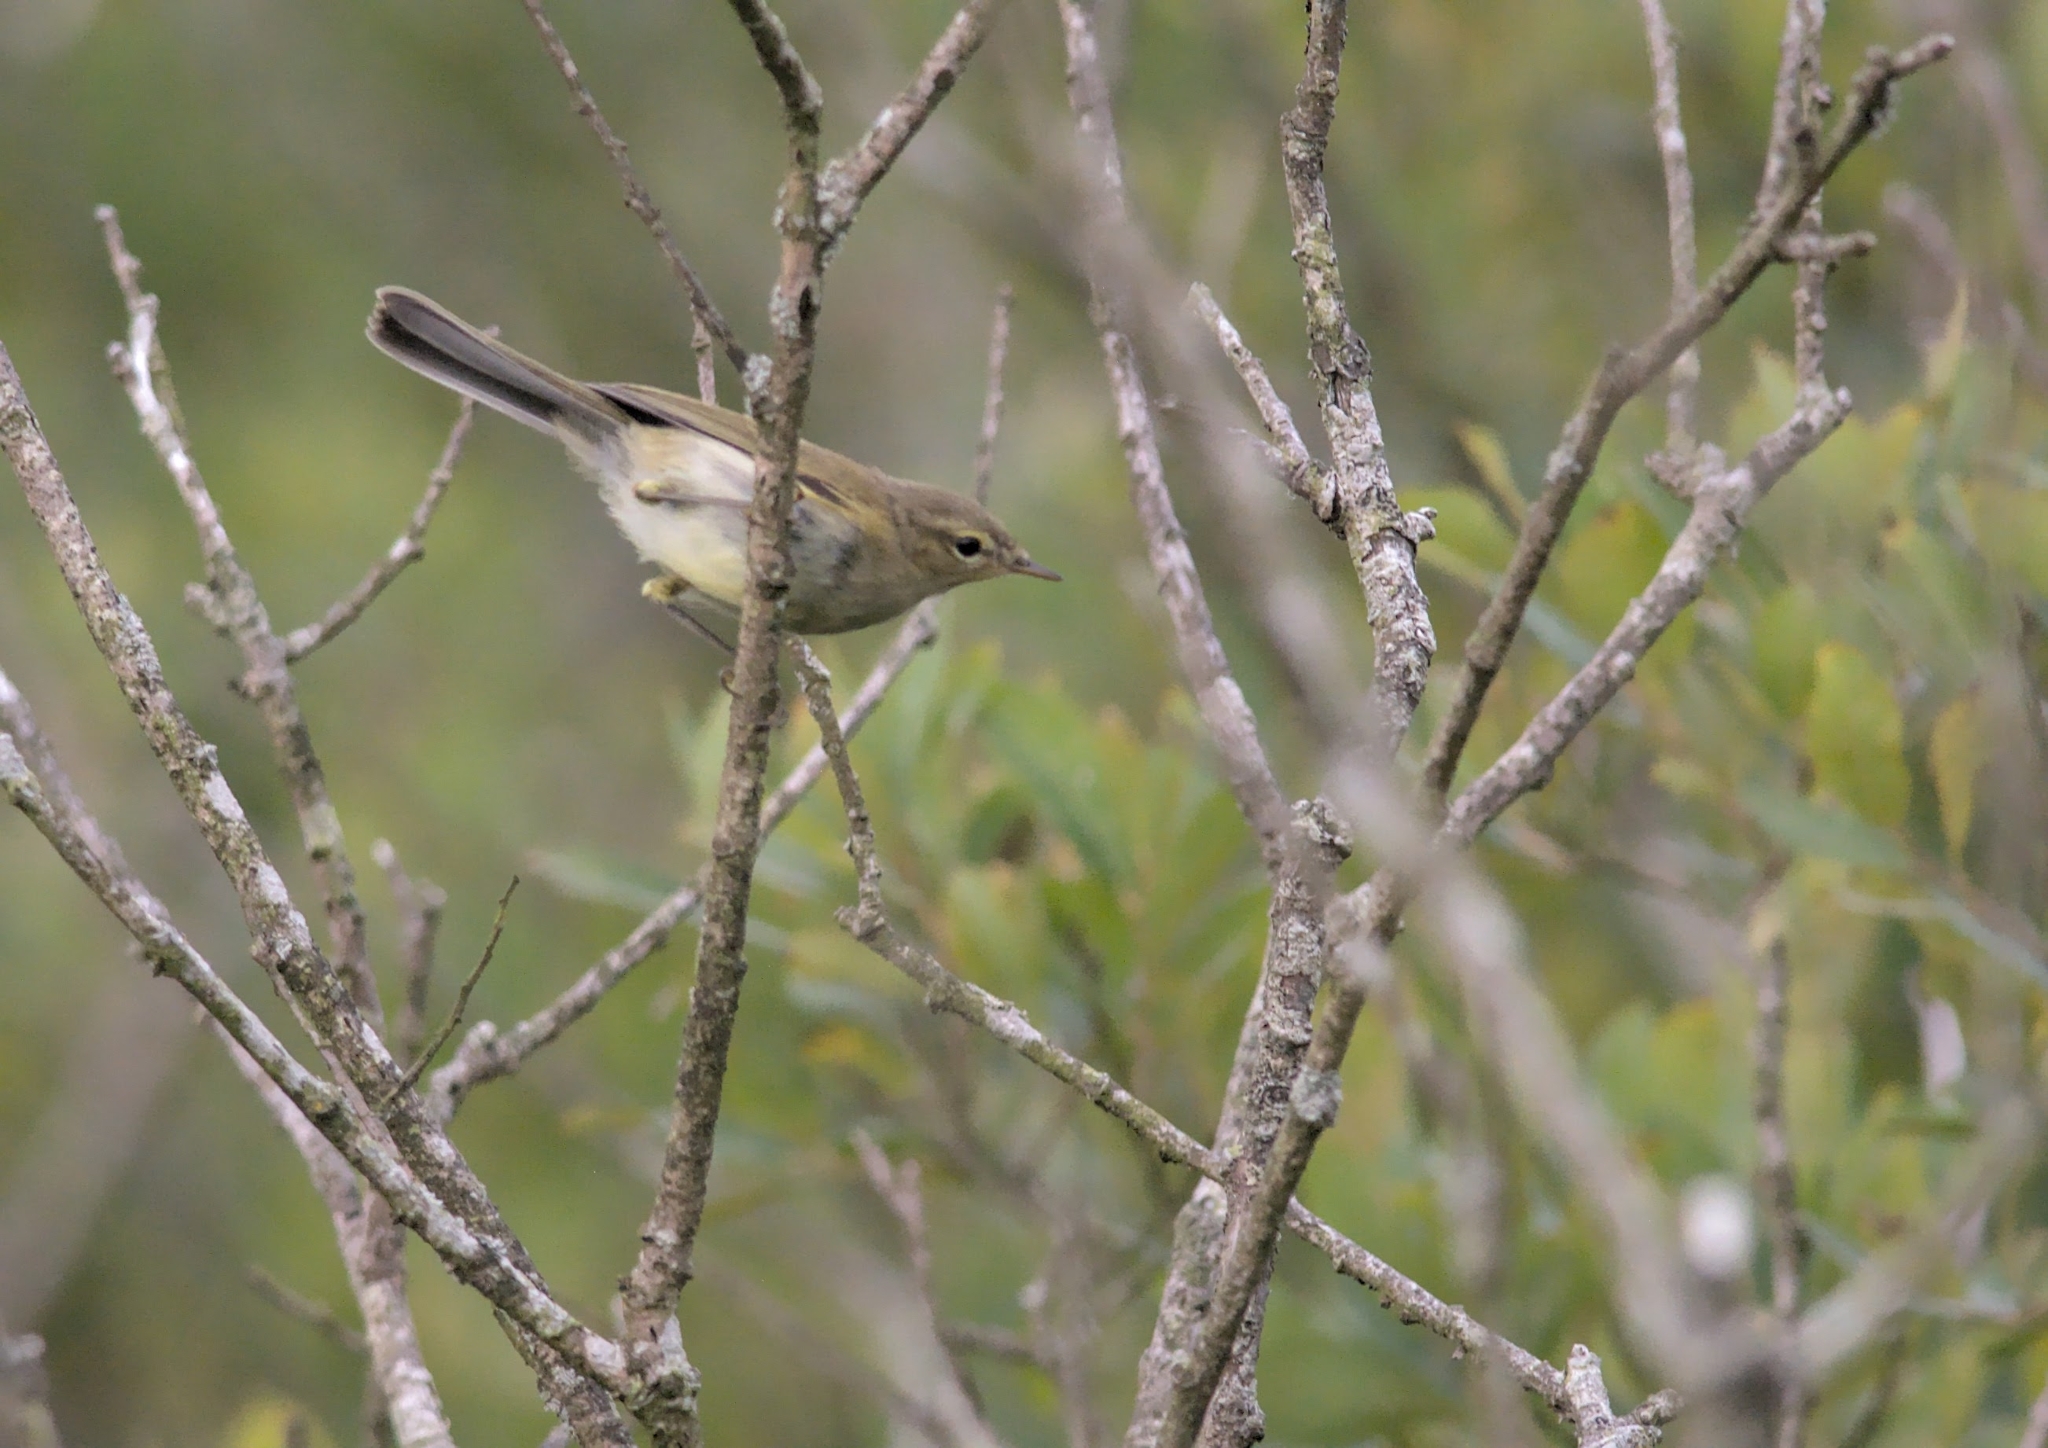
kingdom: Animalia
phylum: Chordata
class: Aves
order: Passeriformes
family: Phylloscopidae
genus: Phylloscopus
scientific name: Phylloscopus collybita
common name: Common chiffchaff
